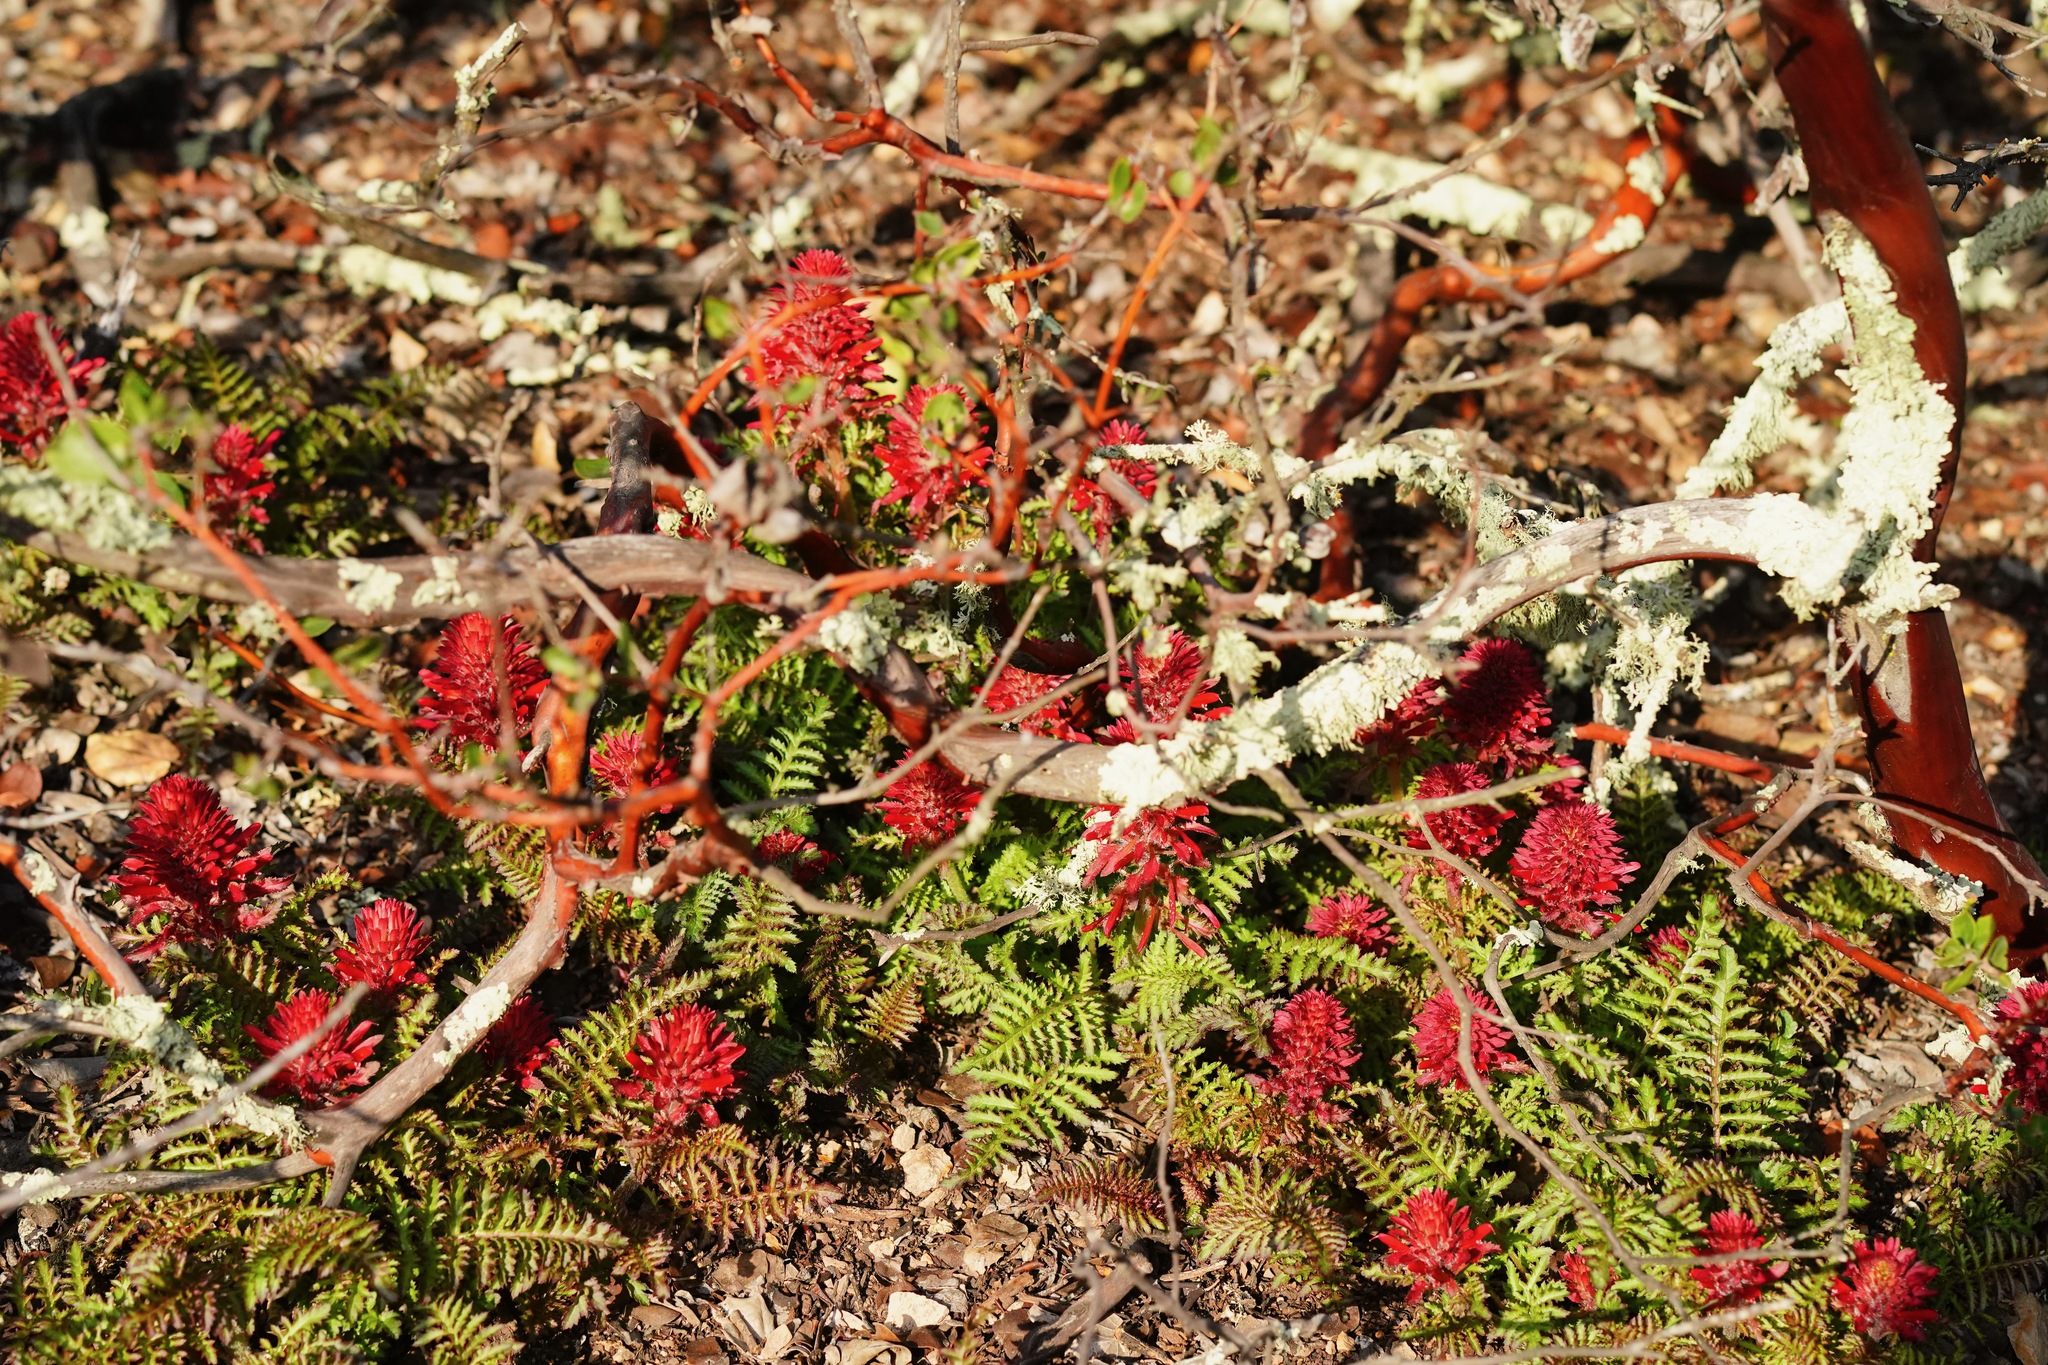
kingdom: Plantae
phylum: Tracheophyta
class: Magnoliopsida
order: Lamiales
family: Orobanchaceae
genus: Pedicularis
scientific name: Pedicularis densiflora
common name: Indian warrior
